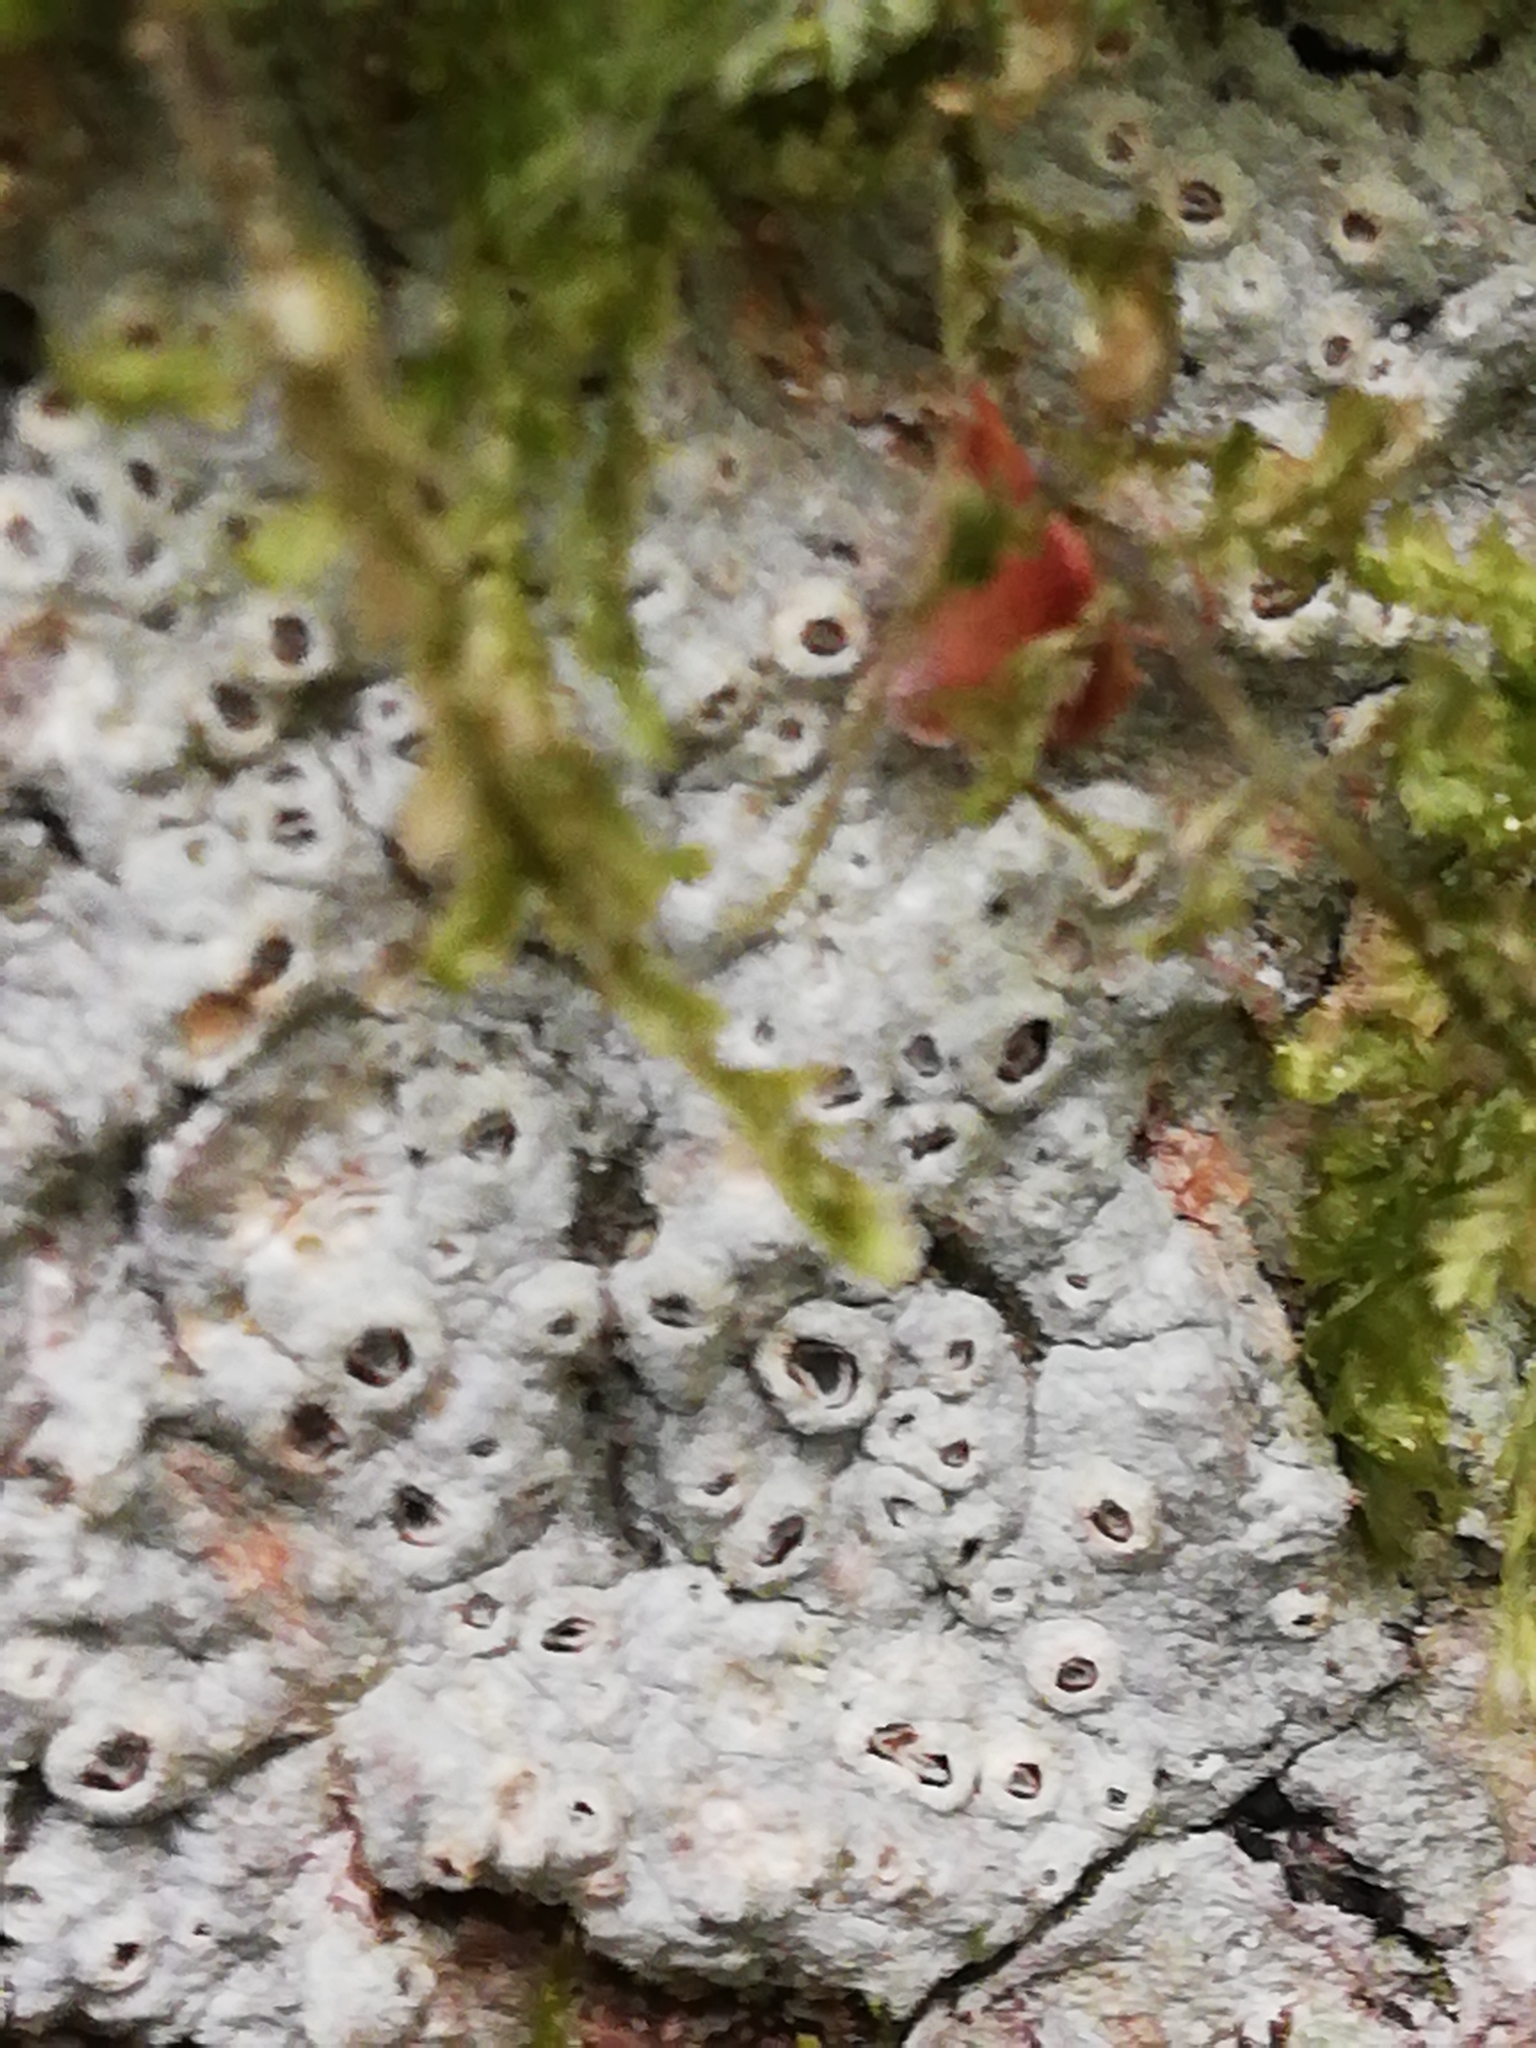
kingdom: Fungi
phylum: Ascomycota
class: Lecanoromycetes
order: Ostropales
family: Graphidaceae
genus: Thelotrema
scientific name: Thelotrema lepadinum
